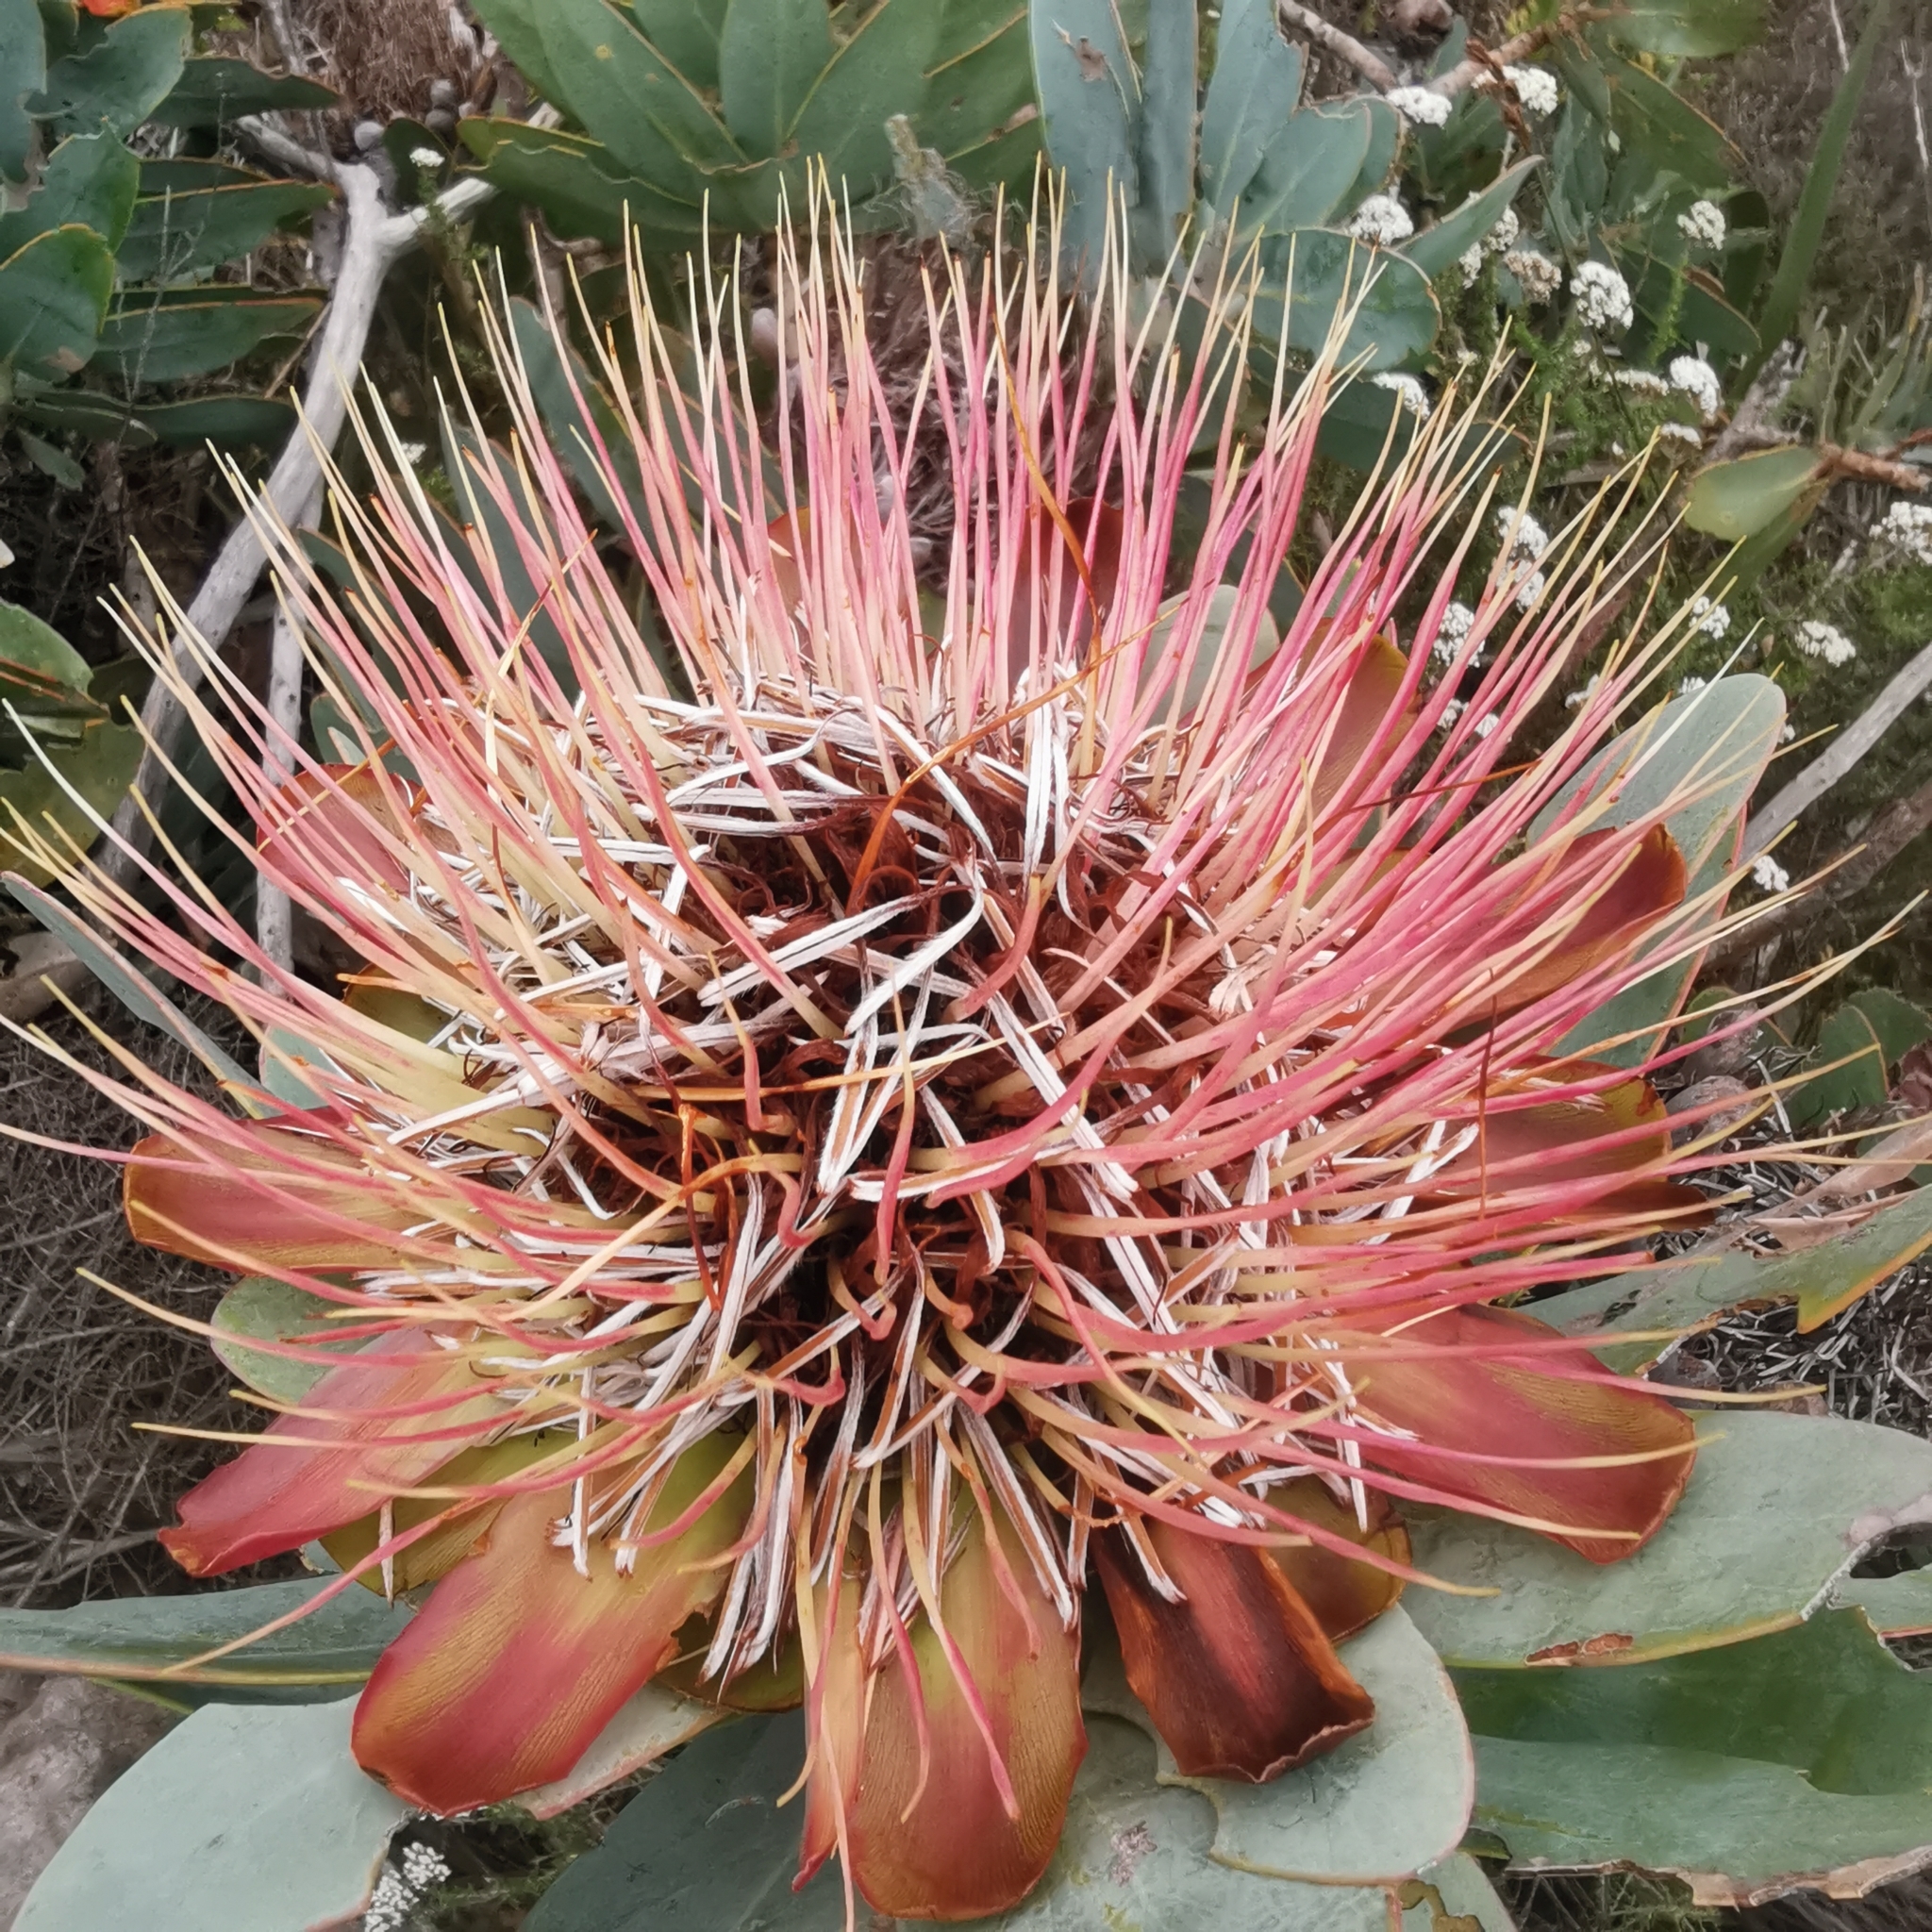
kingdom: Plantae
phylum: Tracheophyta
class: Magnoliopsida
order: Proteales
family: Proteaceae
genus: Protea
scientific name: Protea nitida
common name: Tree protea
